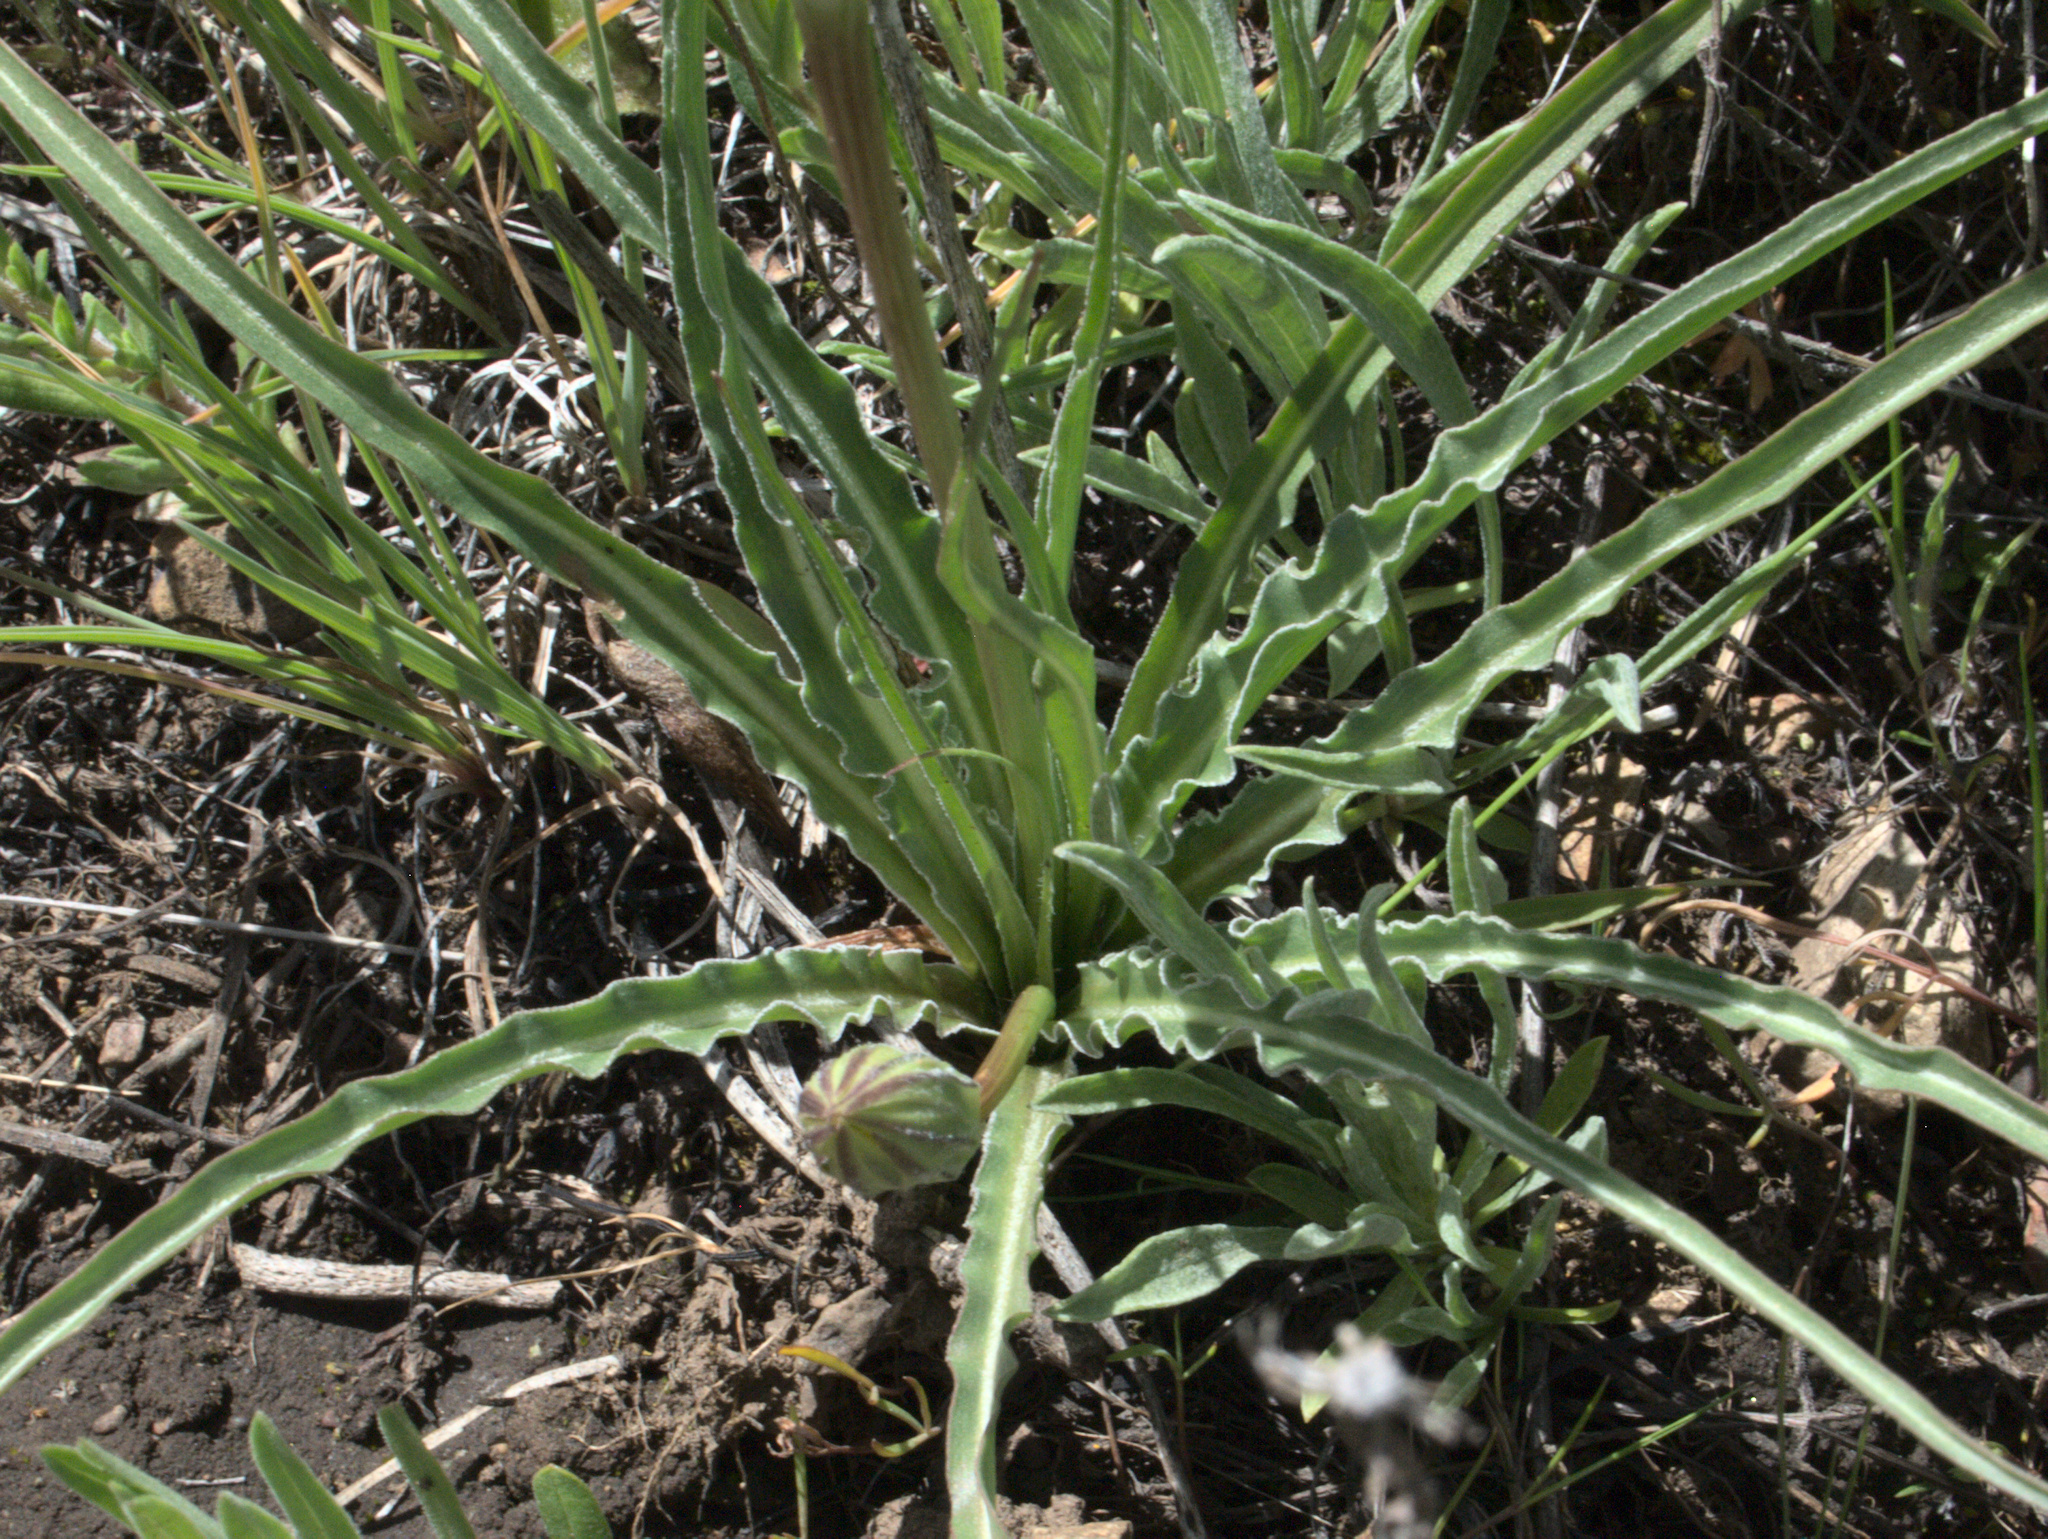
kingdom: Plantae
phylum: Tracheophyta
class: Magnoliopsida
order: Asterales
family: Asteraceae
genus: Microseris
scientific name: Microseris troximoides
